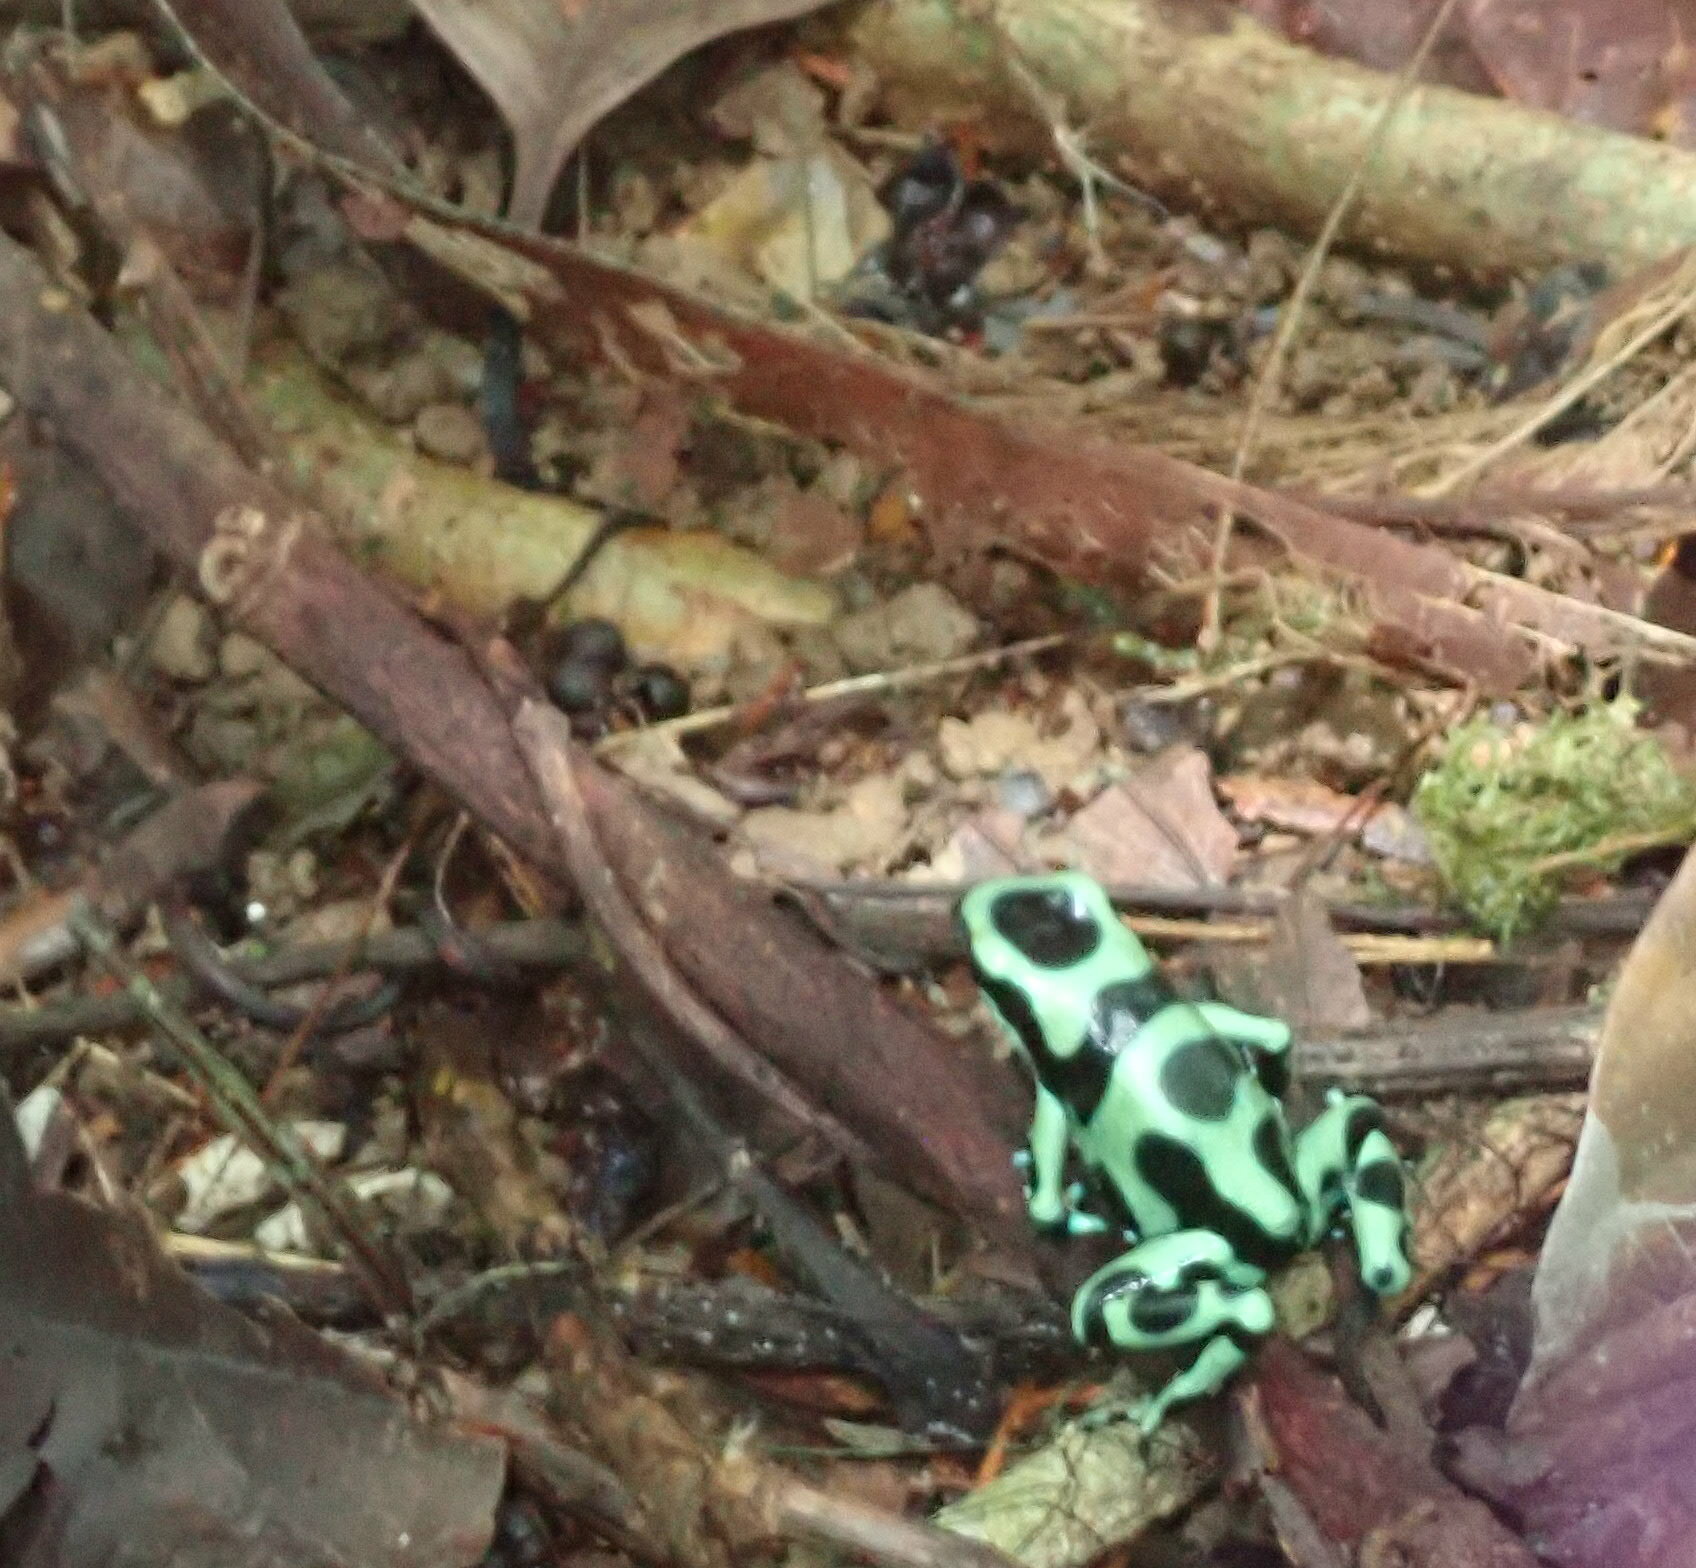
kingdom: Animalia
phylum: Chordata
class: Amphibia
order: Anura
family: Dendrobatidae
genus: Dendrobates
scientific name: Dendrobates auratus
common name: Green and black poison dart frog
